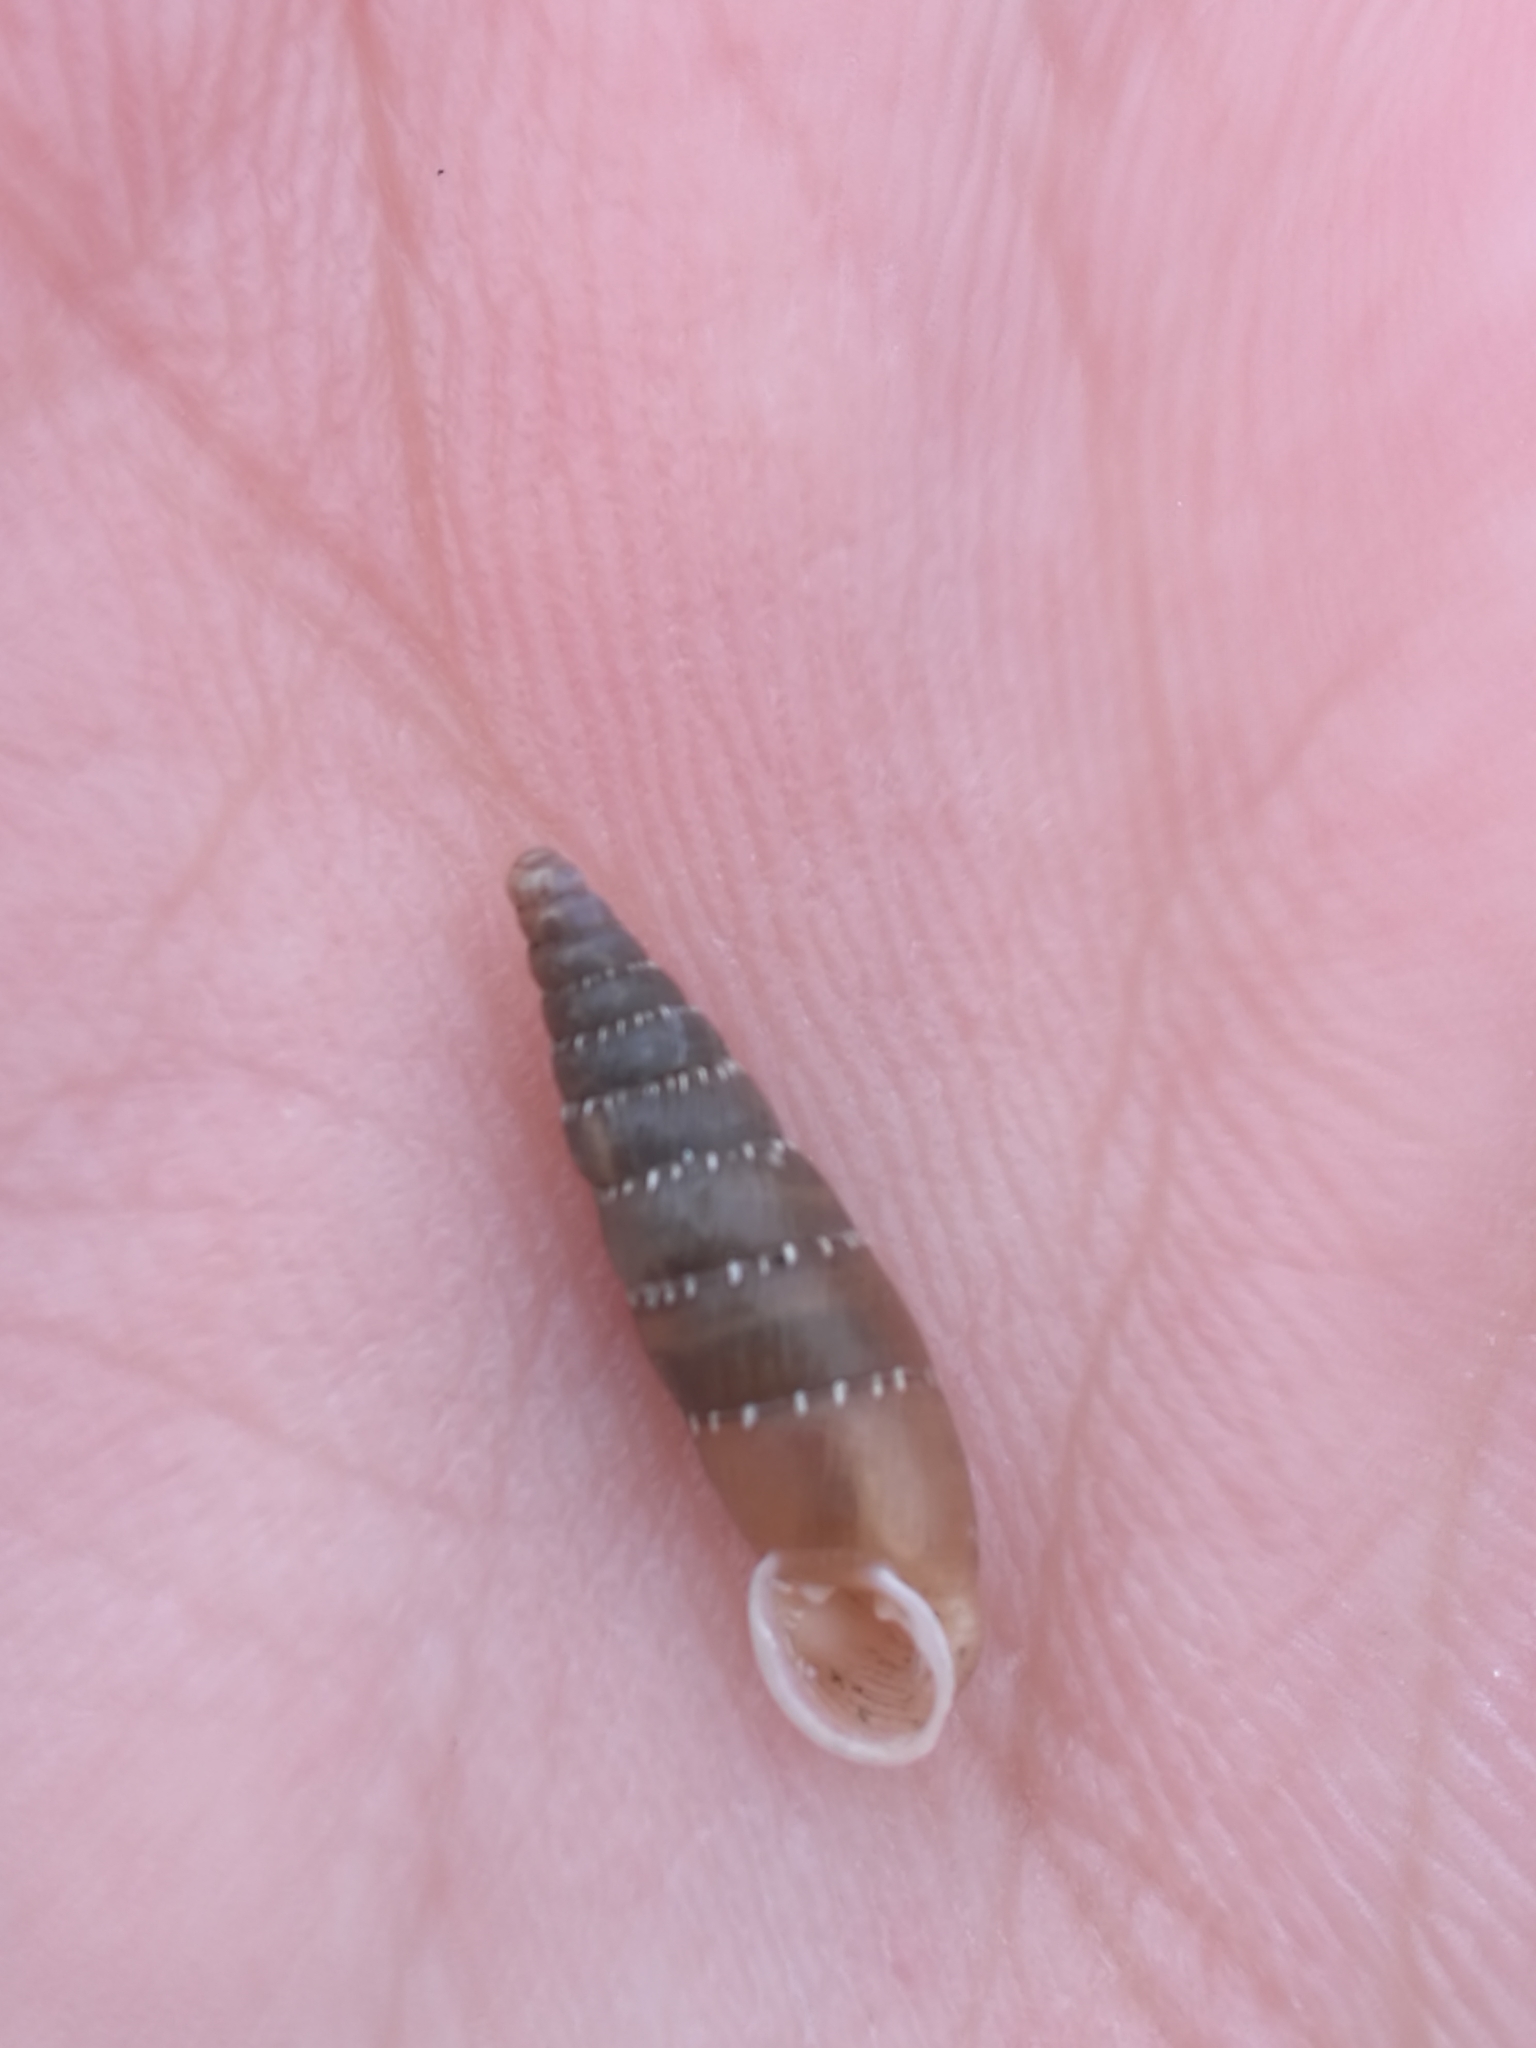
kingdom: Animalia
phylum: Mollusca
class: Gastropoda
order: Stylommatophora
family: Clausiliidae
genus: Papillifera
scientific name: Papillifera papillaris
